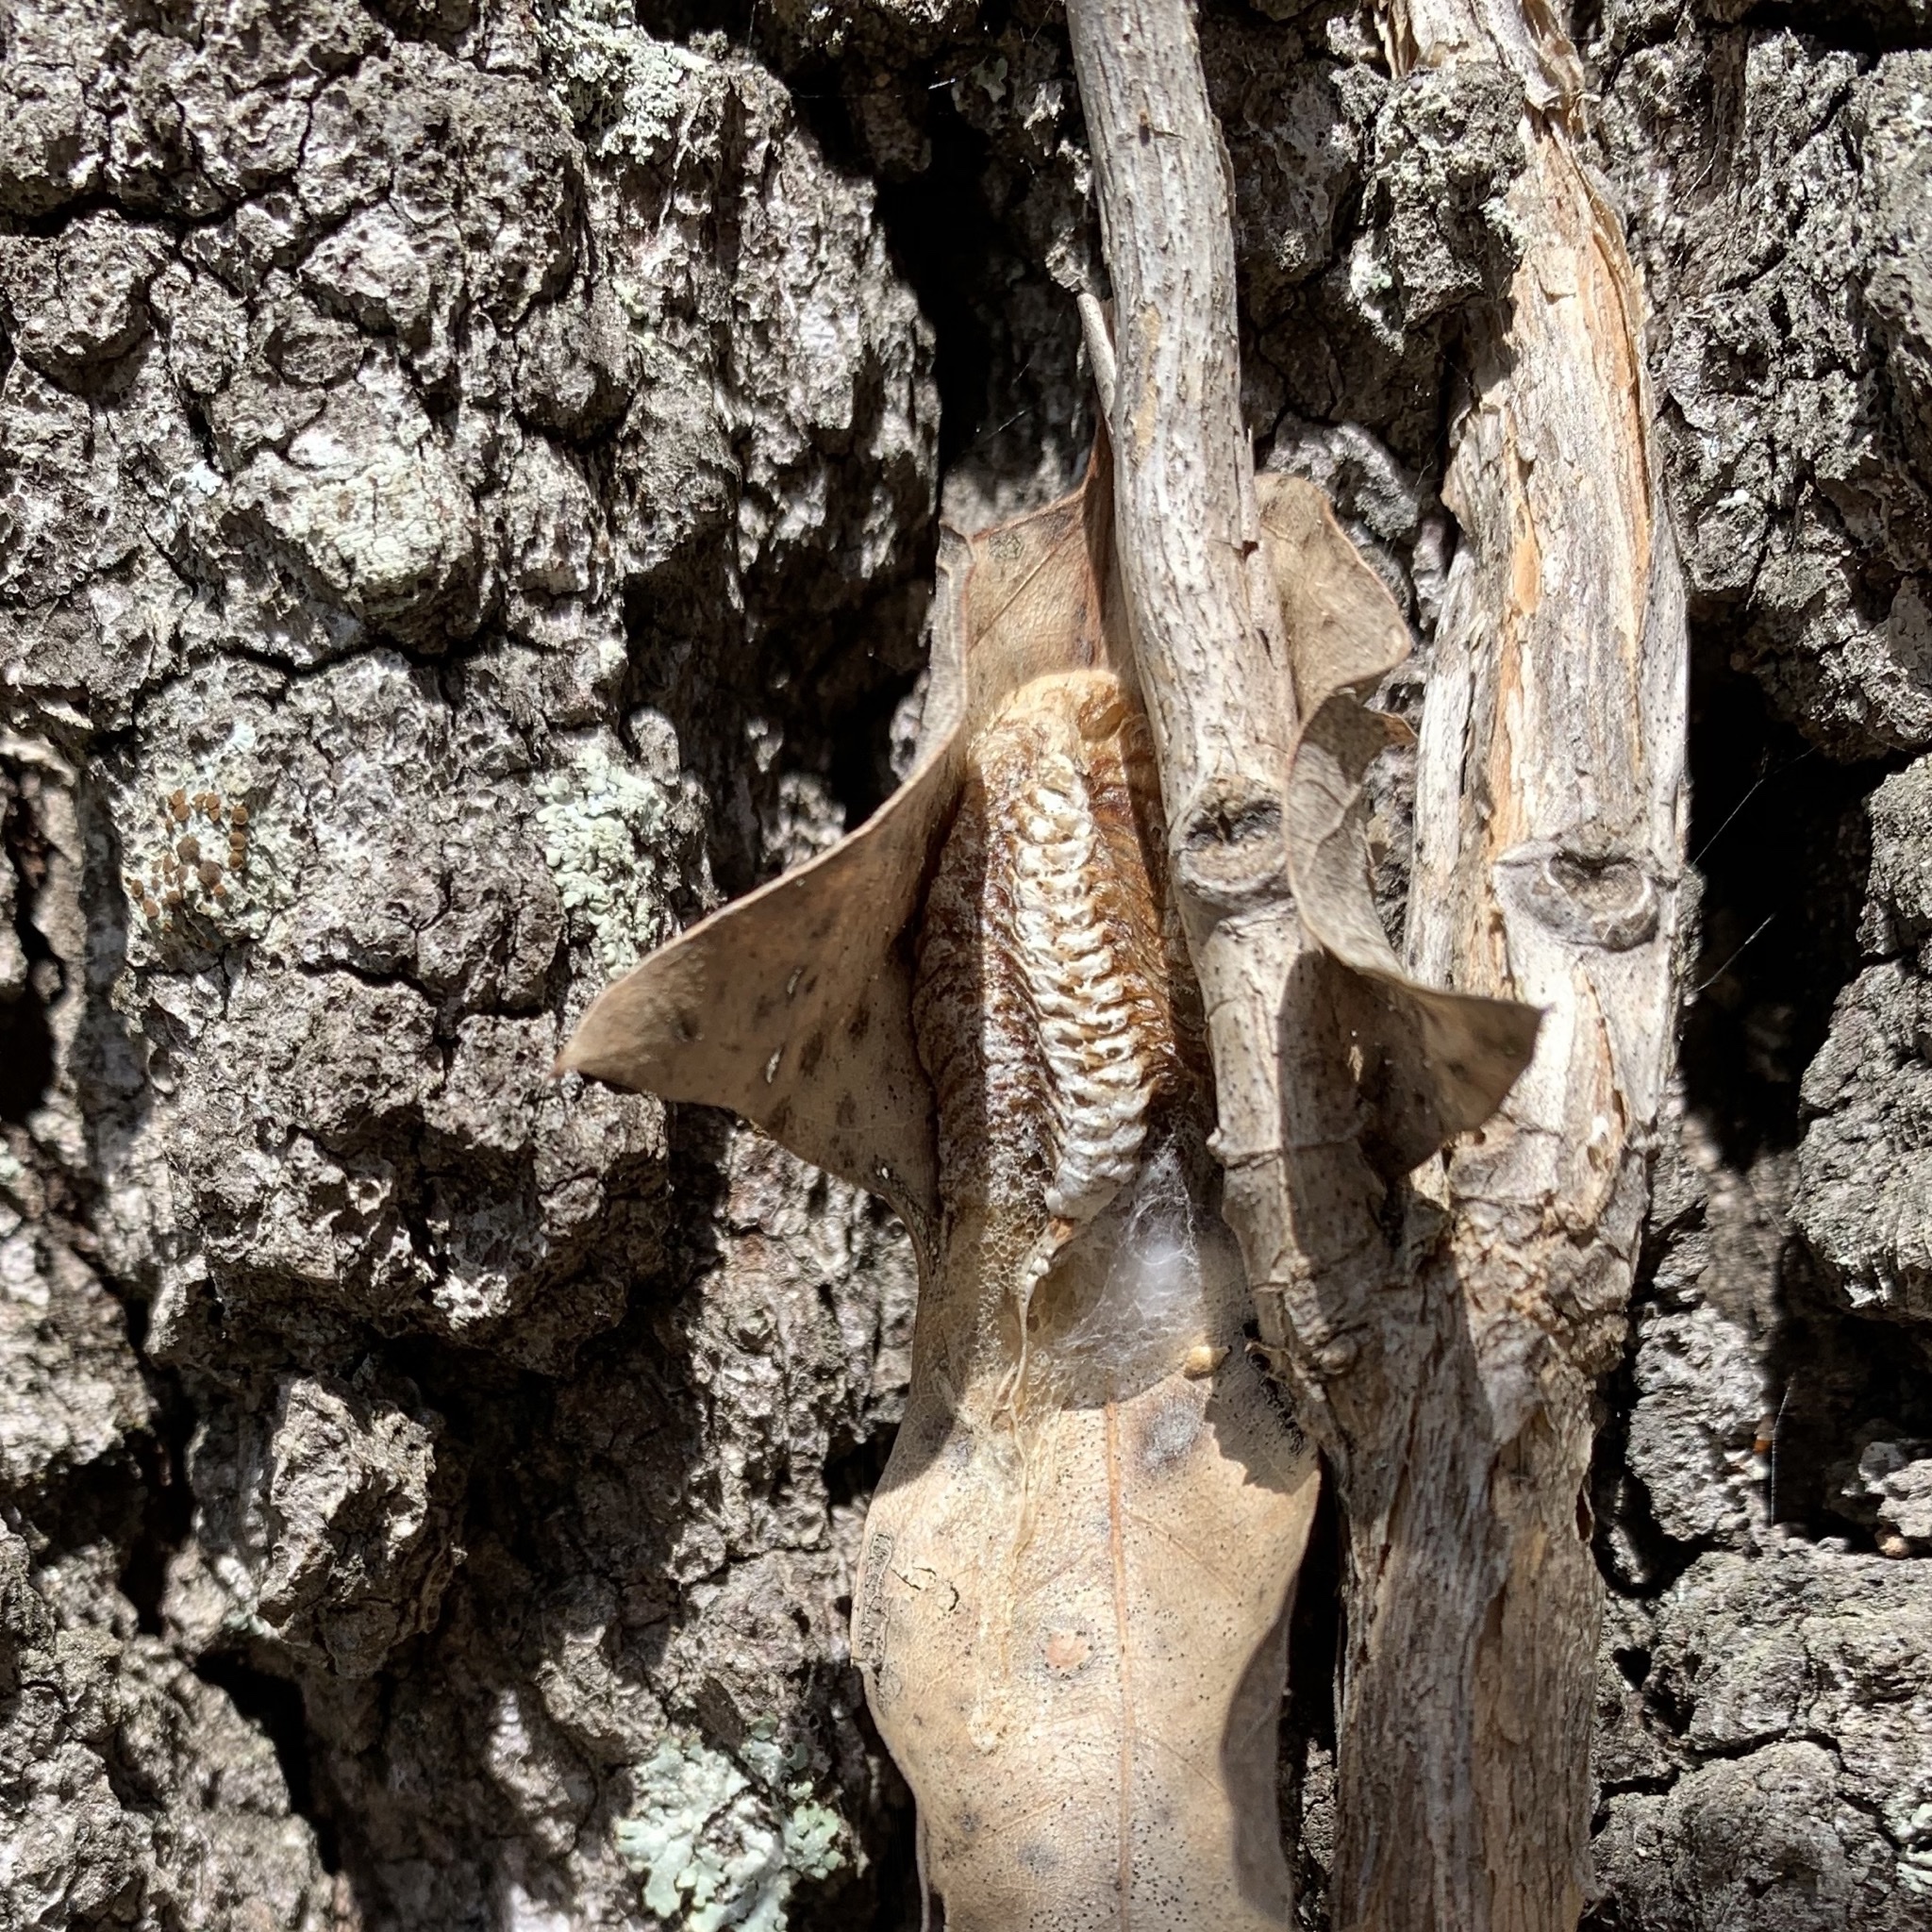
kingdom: Animalia
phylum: Arthropoda
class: Insecta
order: Mantodea
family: Mantidae
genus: Stagmomantis
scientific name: Stagmomantis carolina
